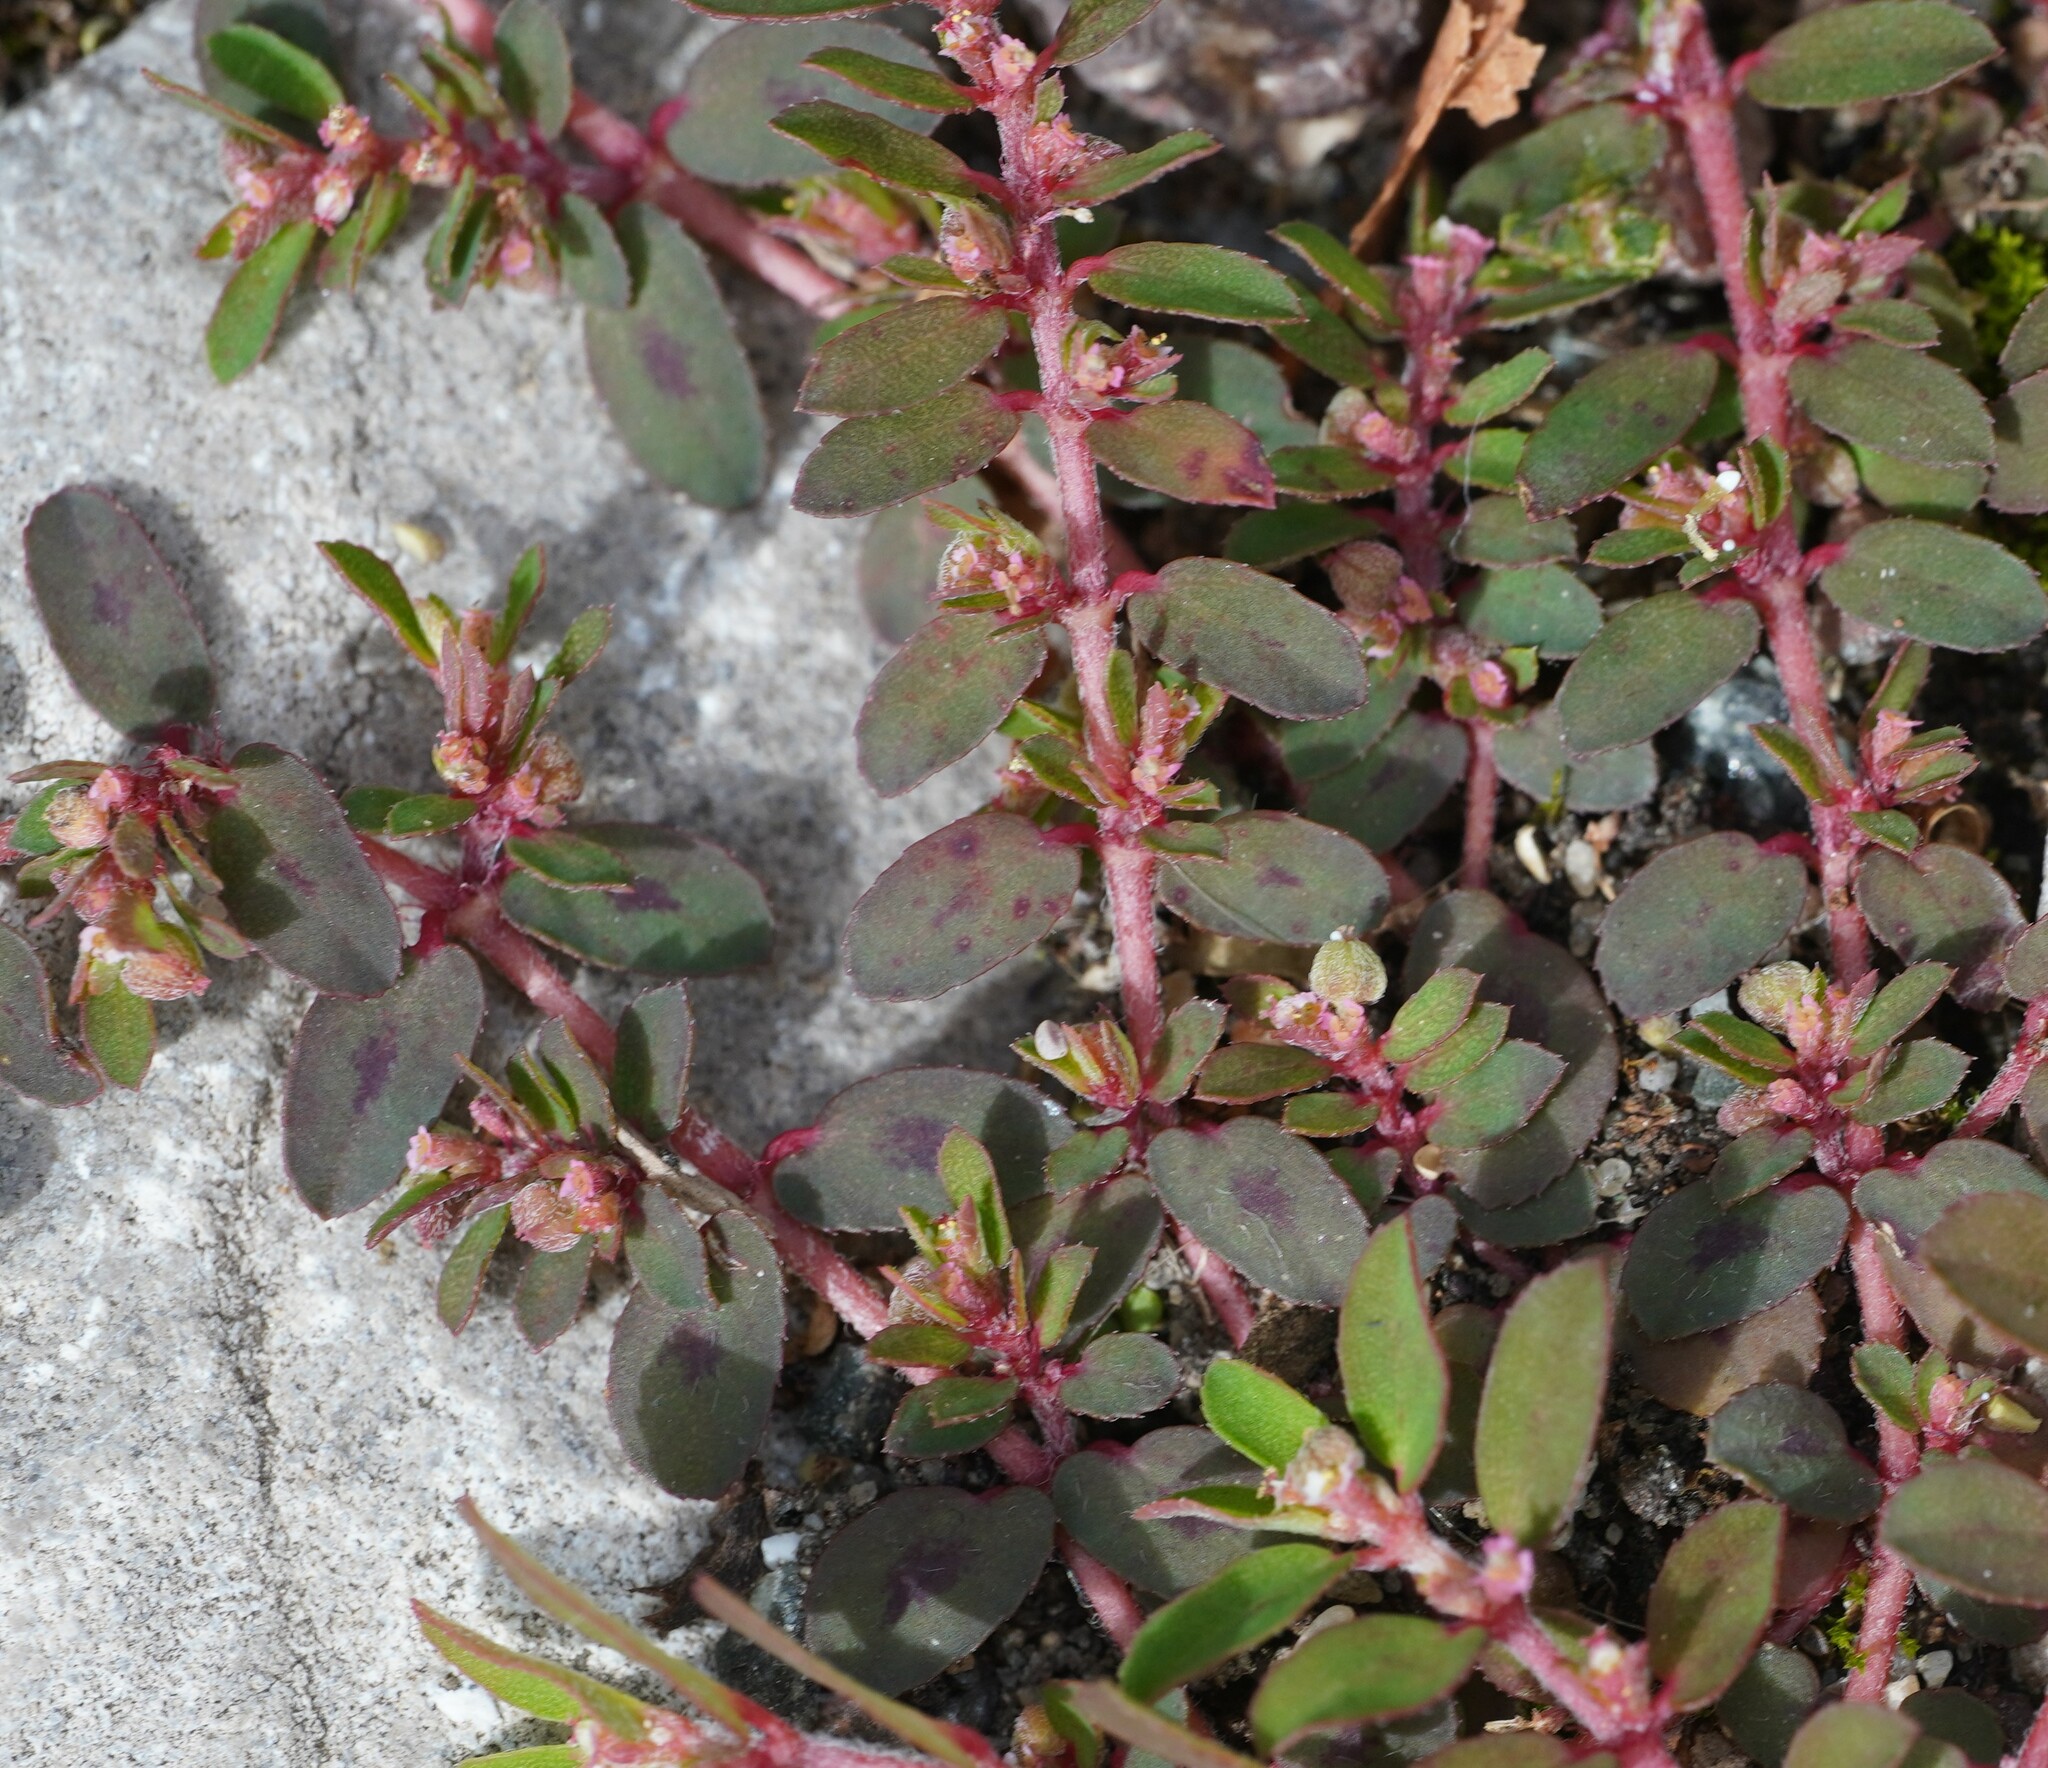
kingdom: Plantae
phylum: Tracheophyta
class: Magnoliopsida
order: Malpighiales
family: Euphorbiaceae
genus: Euphorbia
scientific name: Euphorbia maculata
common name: Spotted spurge
